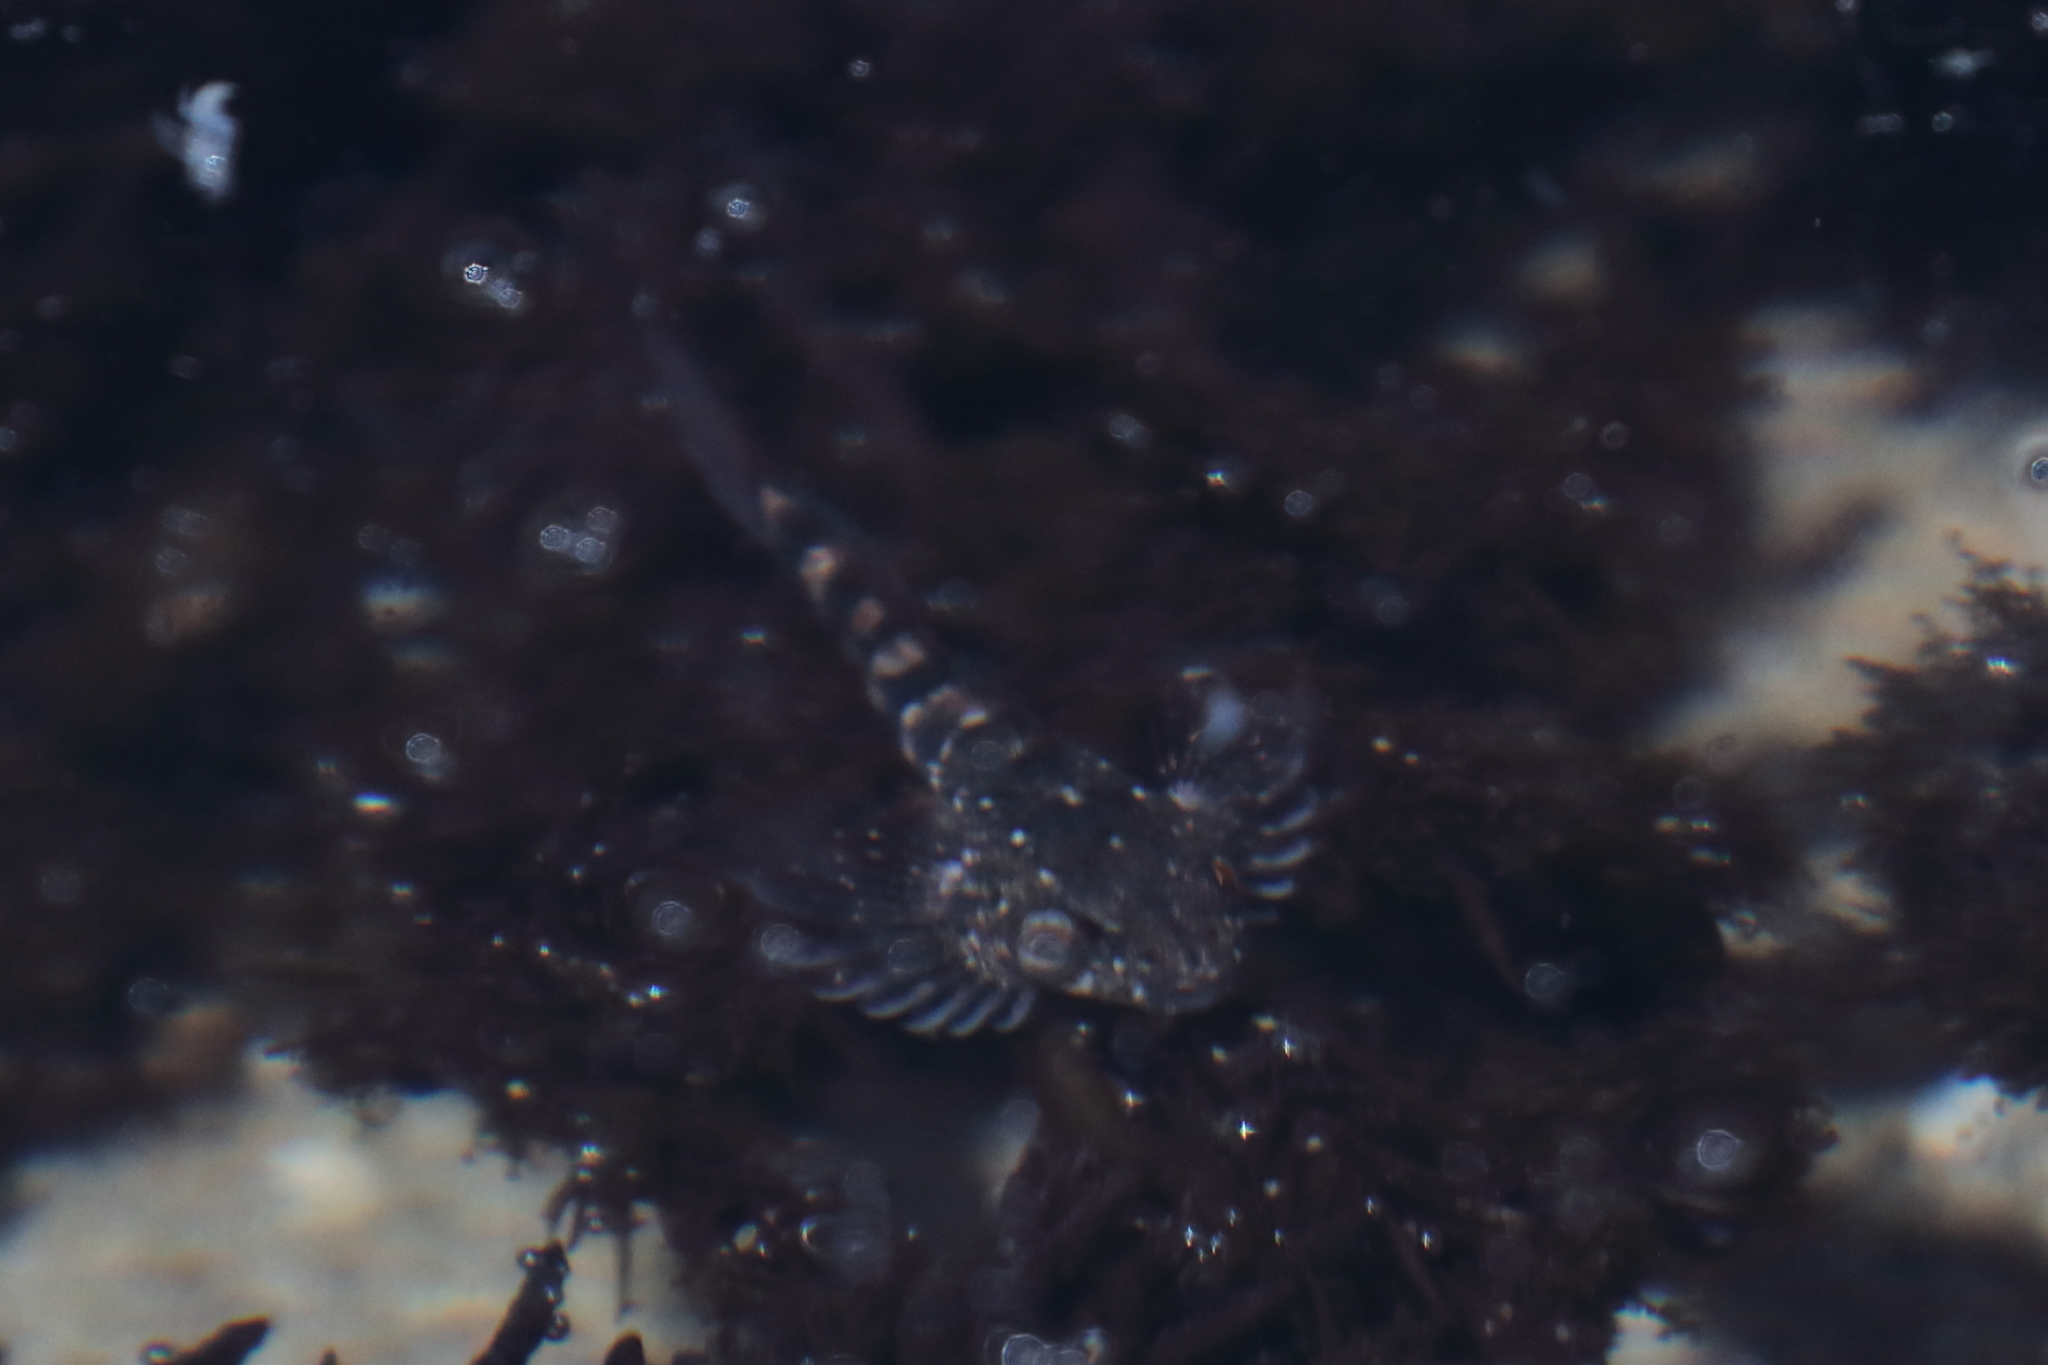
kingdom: Animalia
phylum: Chordata
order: Scorpaeniformes
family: Cottidae
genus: Clinocottus
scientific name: Clinocottus globiceps
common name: Mosshead sculpin
